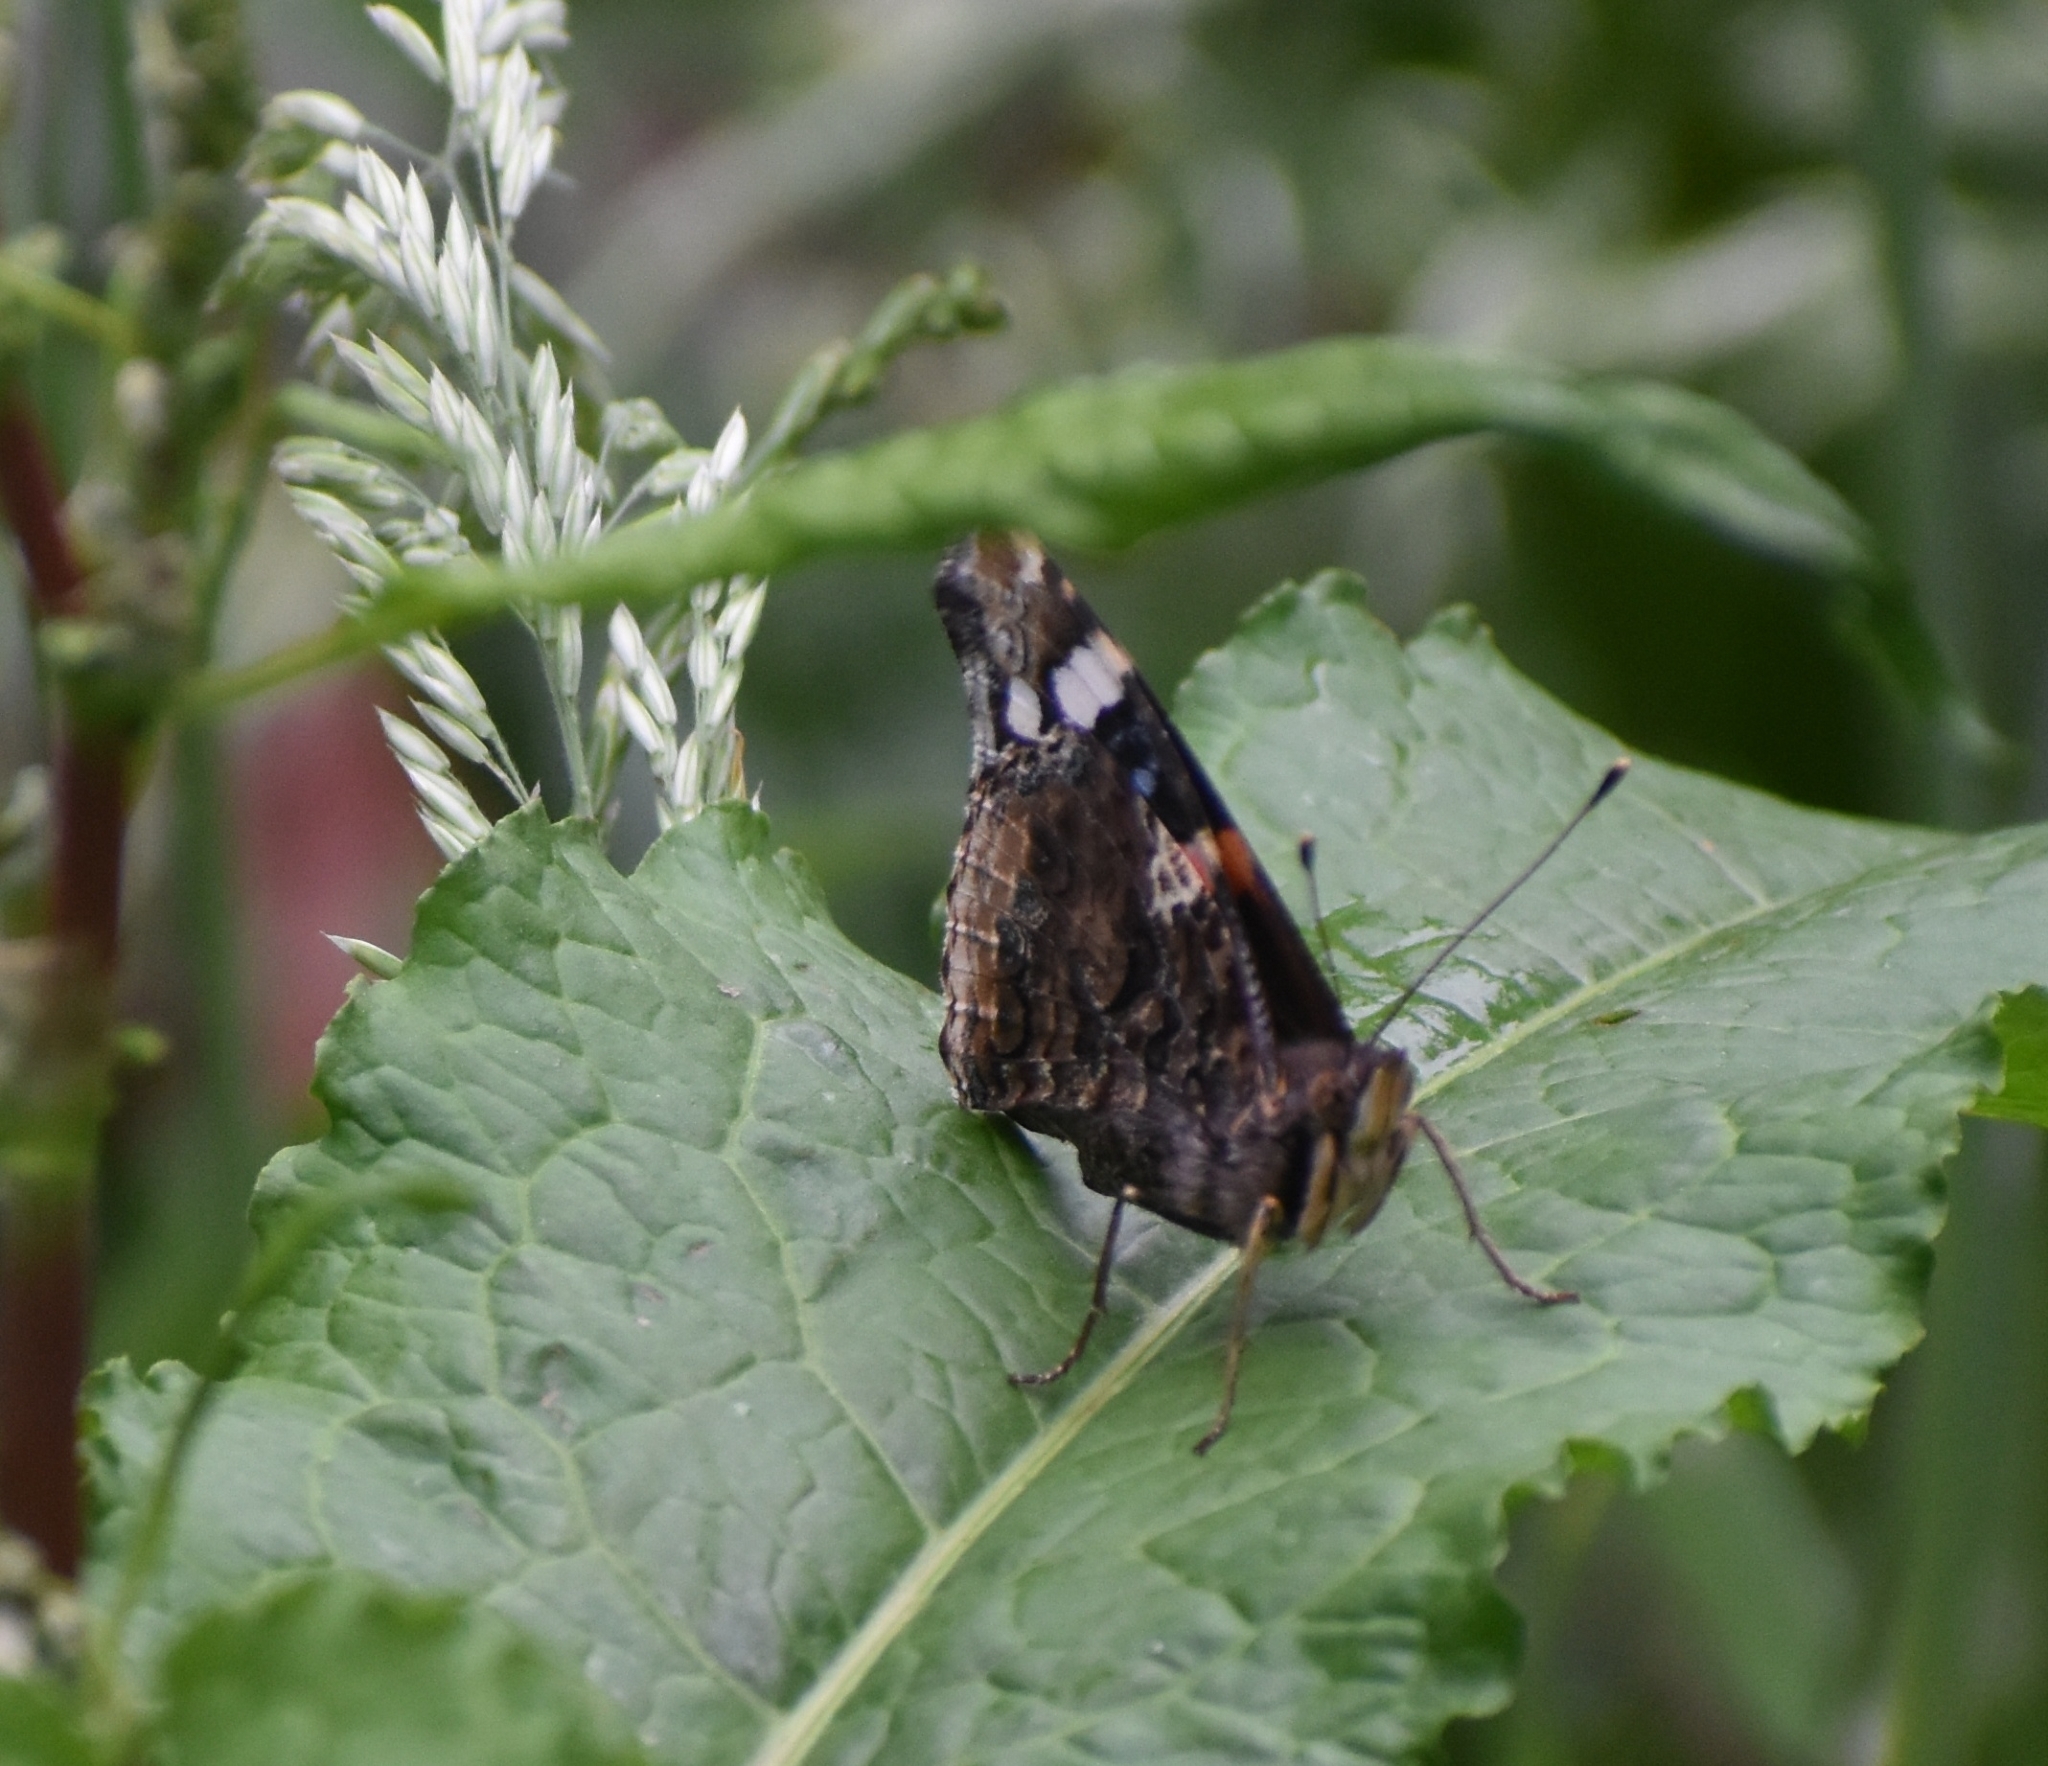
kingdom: Animalia
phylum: Arthropoda
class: Insecta
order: Lepidoptera
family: Nymphalidae
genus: Vanessa
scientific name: Vanessa atalanta
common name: Red admiral
